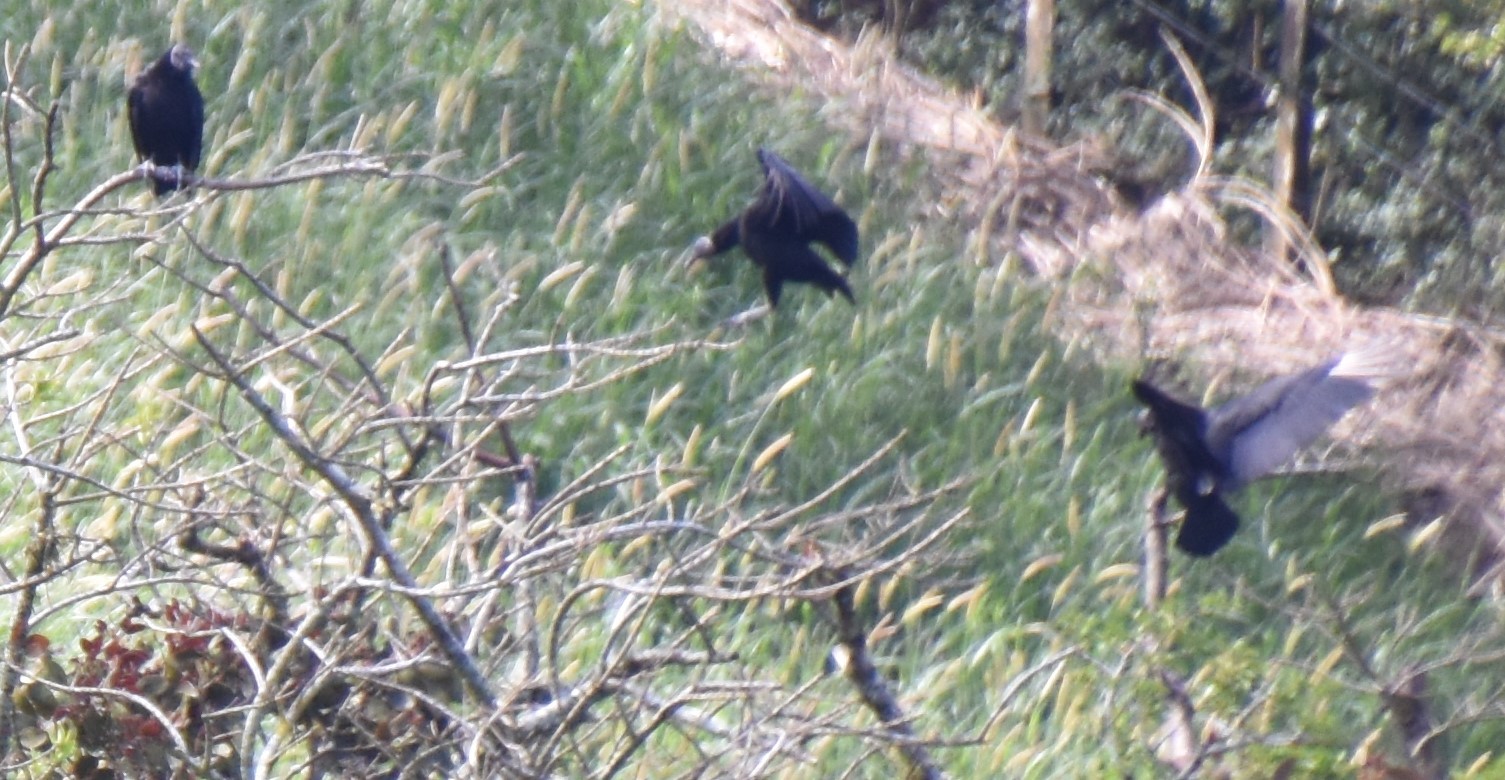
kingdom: Animalia
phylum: Chordata
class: Aves
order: Accipitriformes
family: Cathartidae
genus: Coragyps
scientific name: Coragyps atratus
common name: Black vulture
